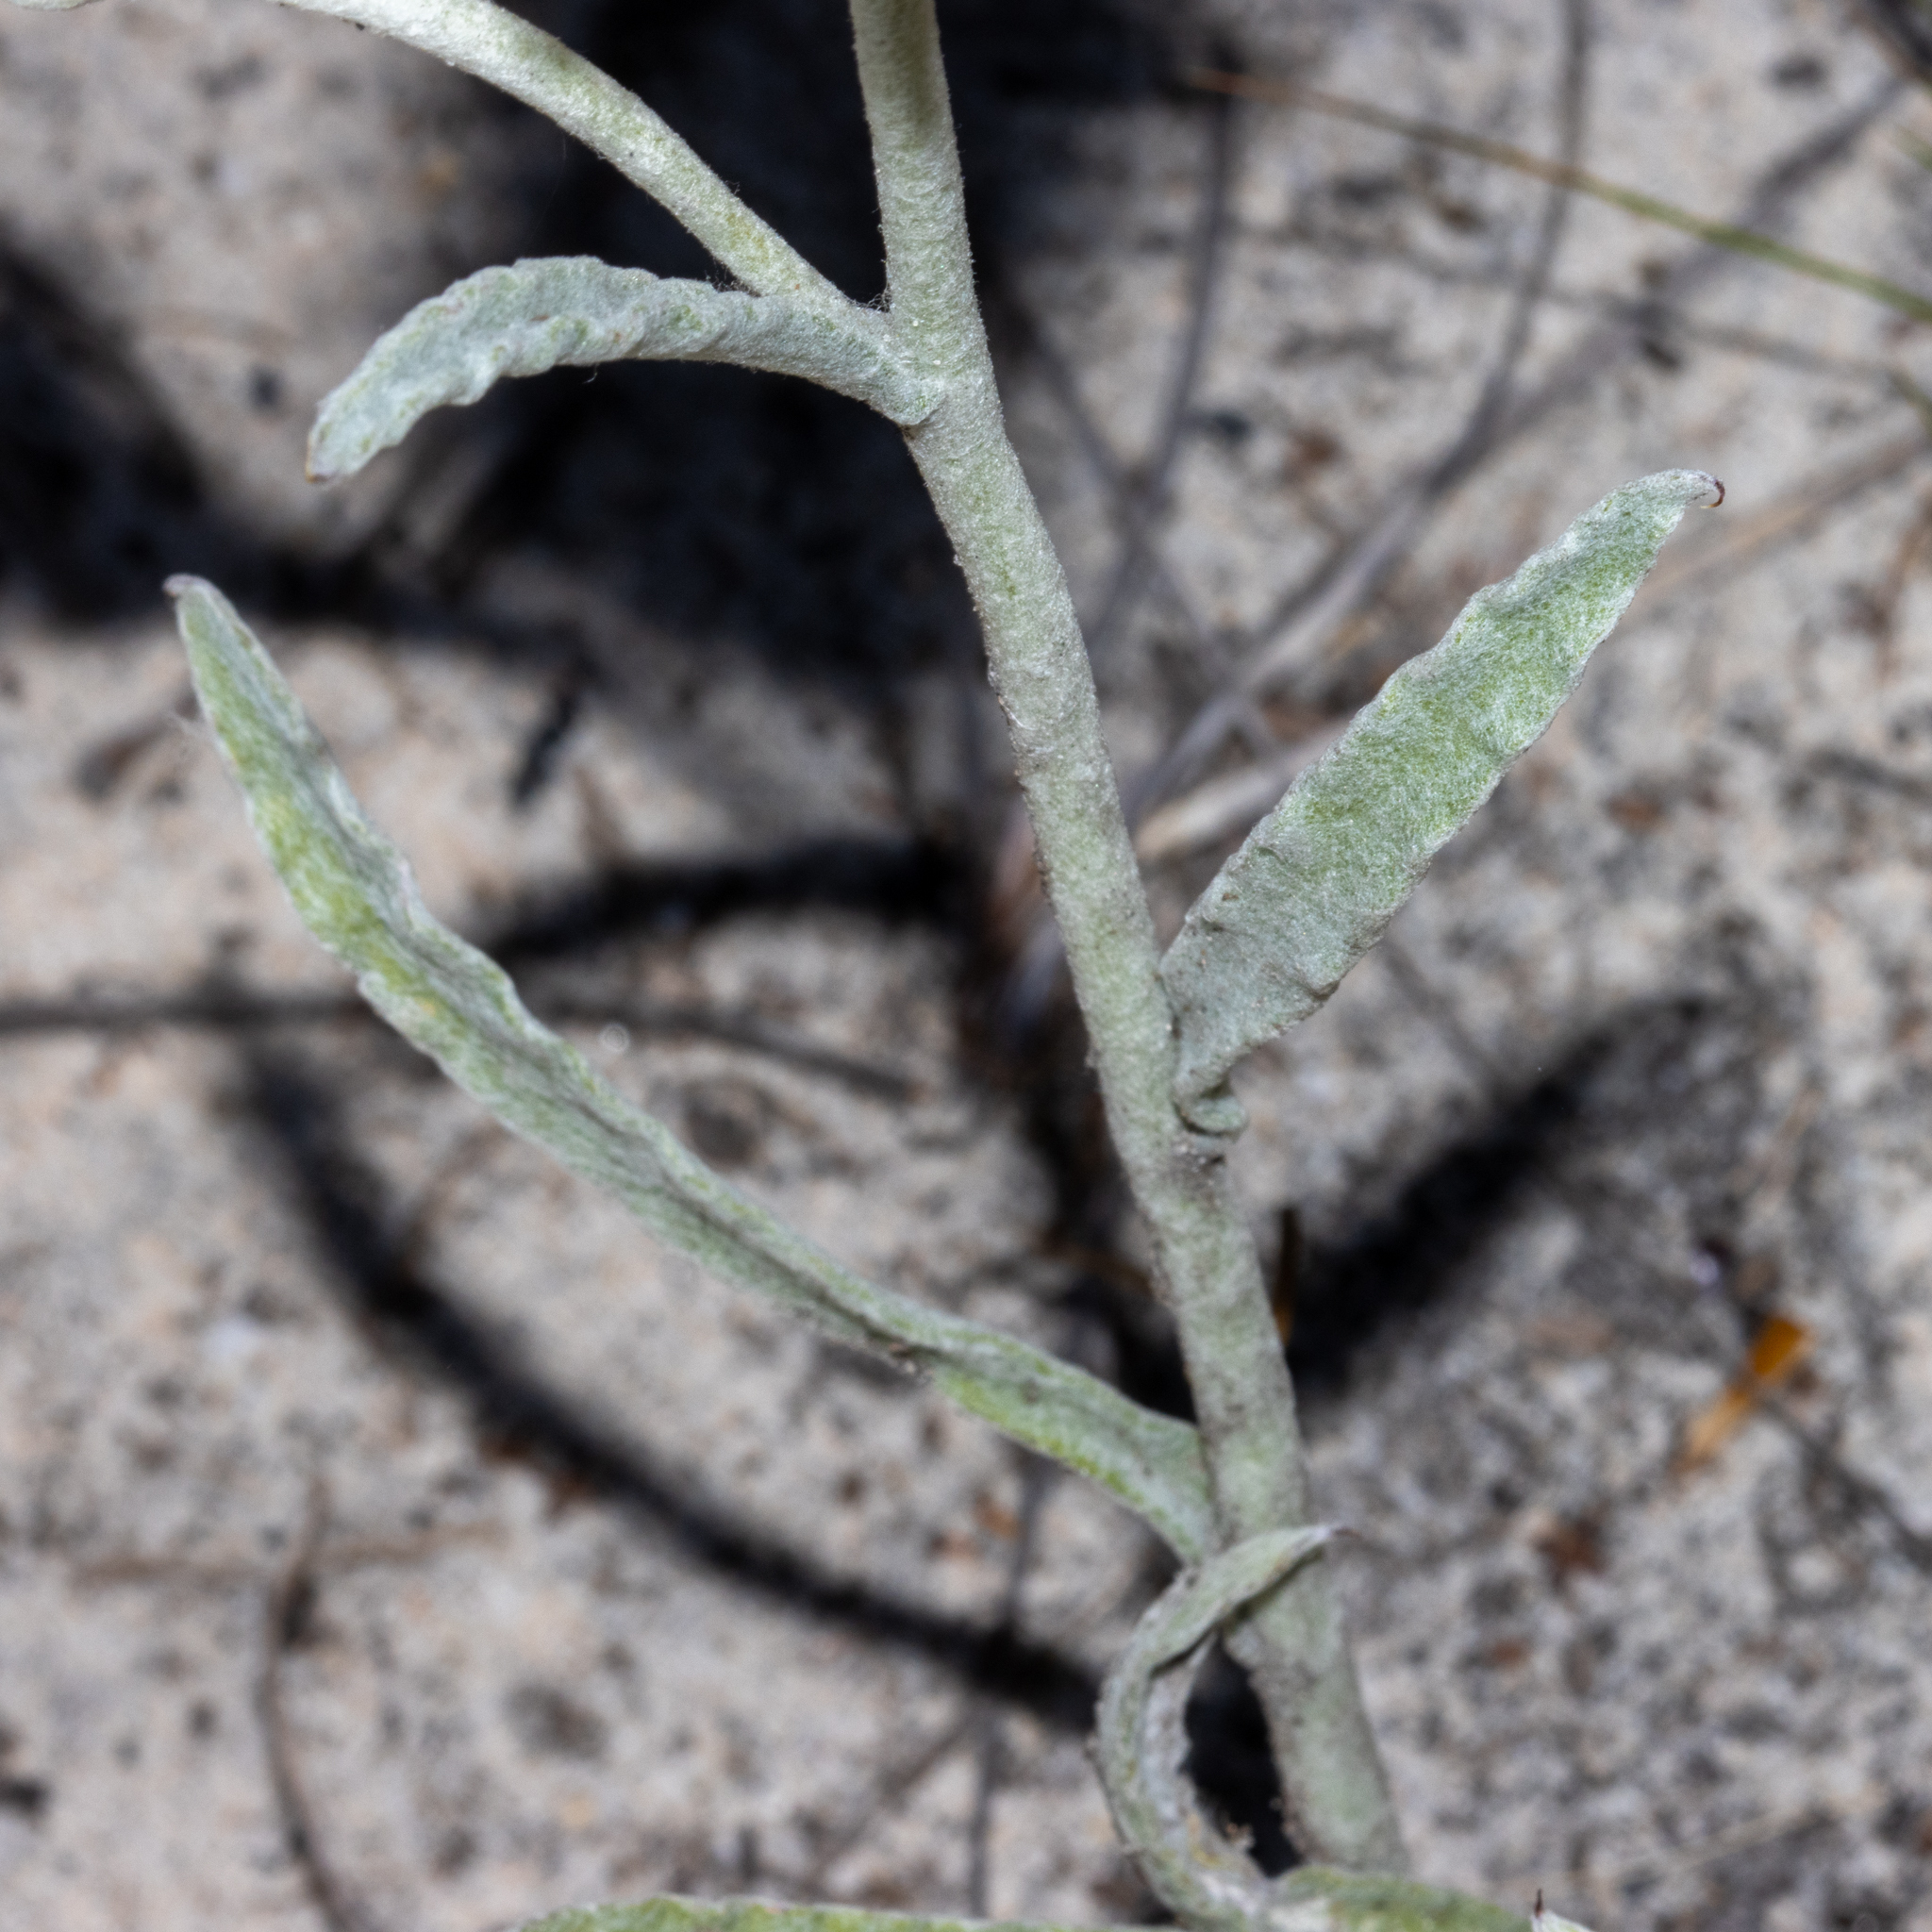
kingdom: Plantae
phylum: Tracheophyta
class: Magnoliopsida
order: Asterales
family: Asteraceae
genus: Argentipallium
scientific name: Argentipallium blandowskianum
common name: Woolly everlasting
